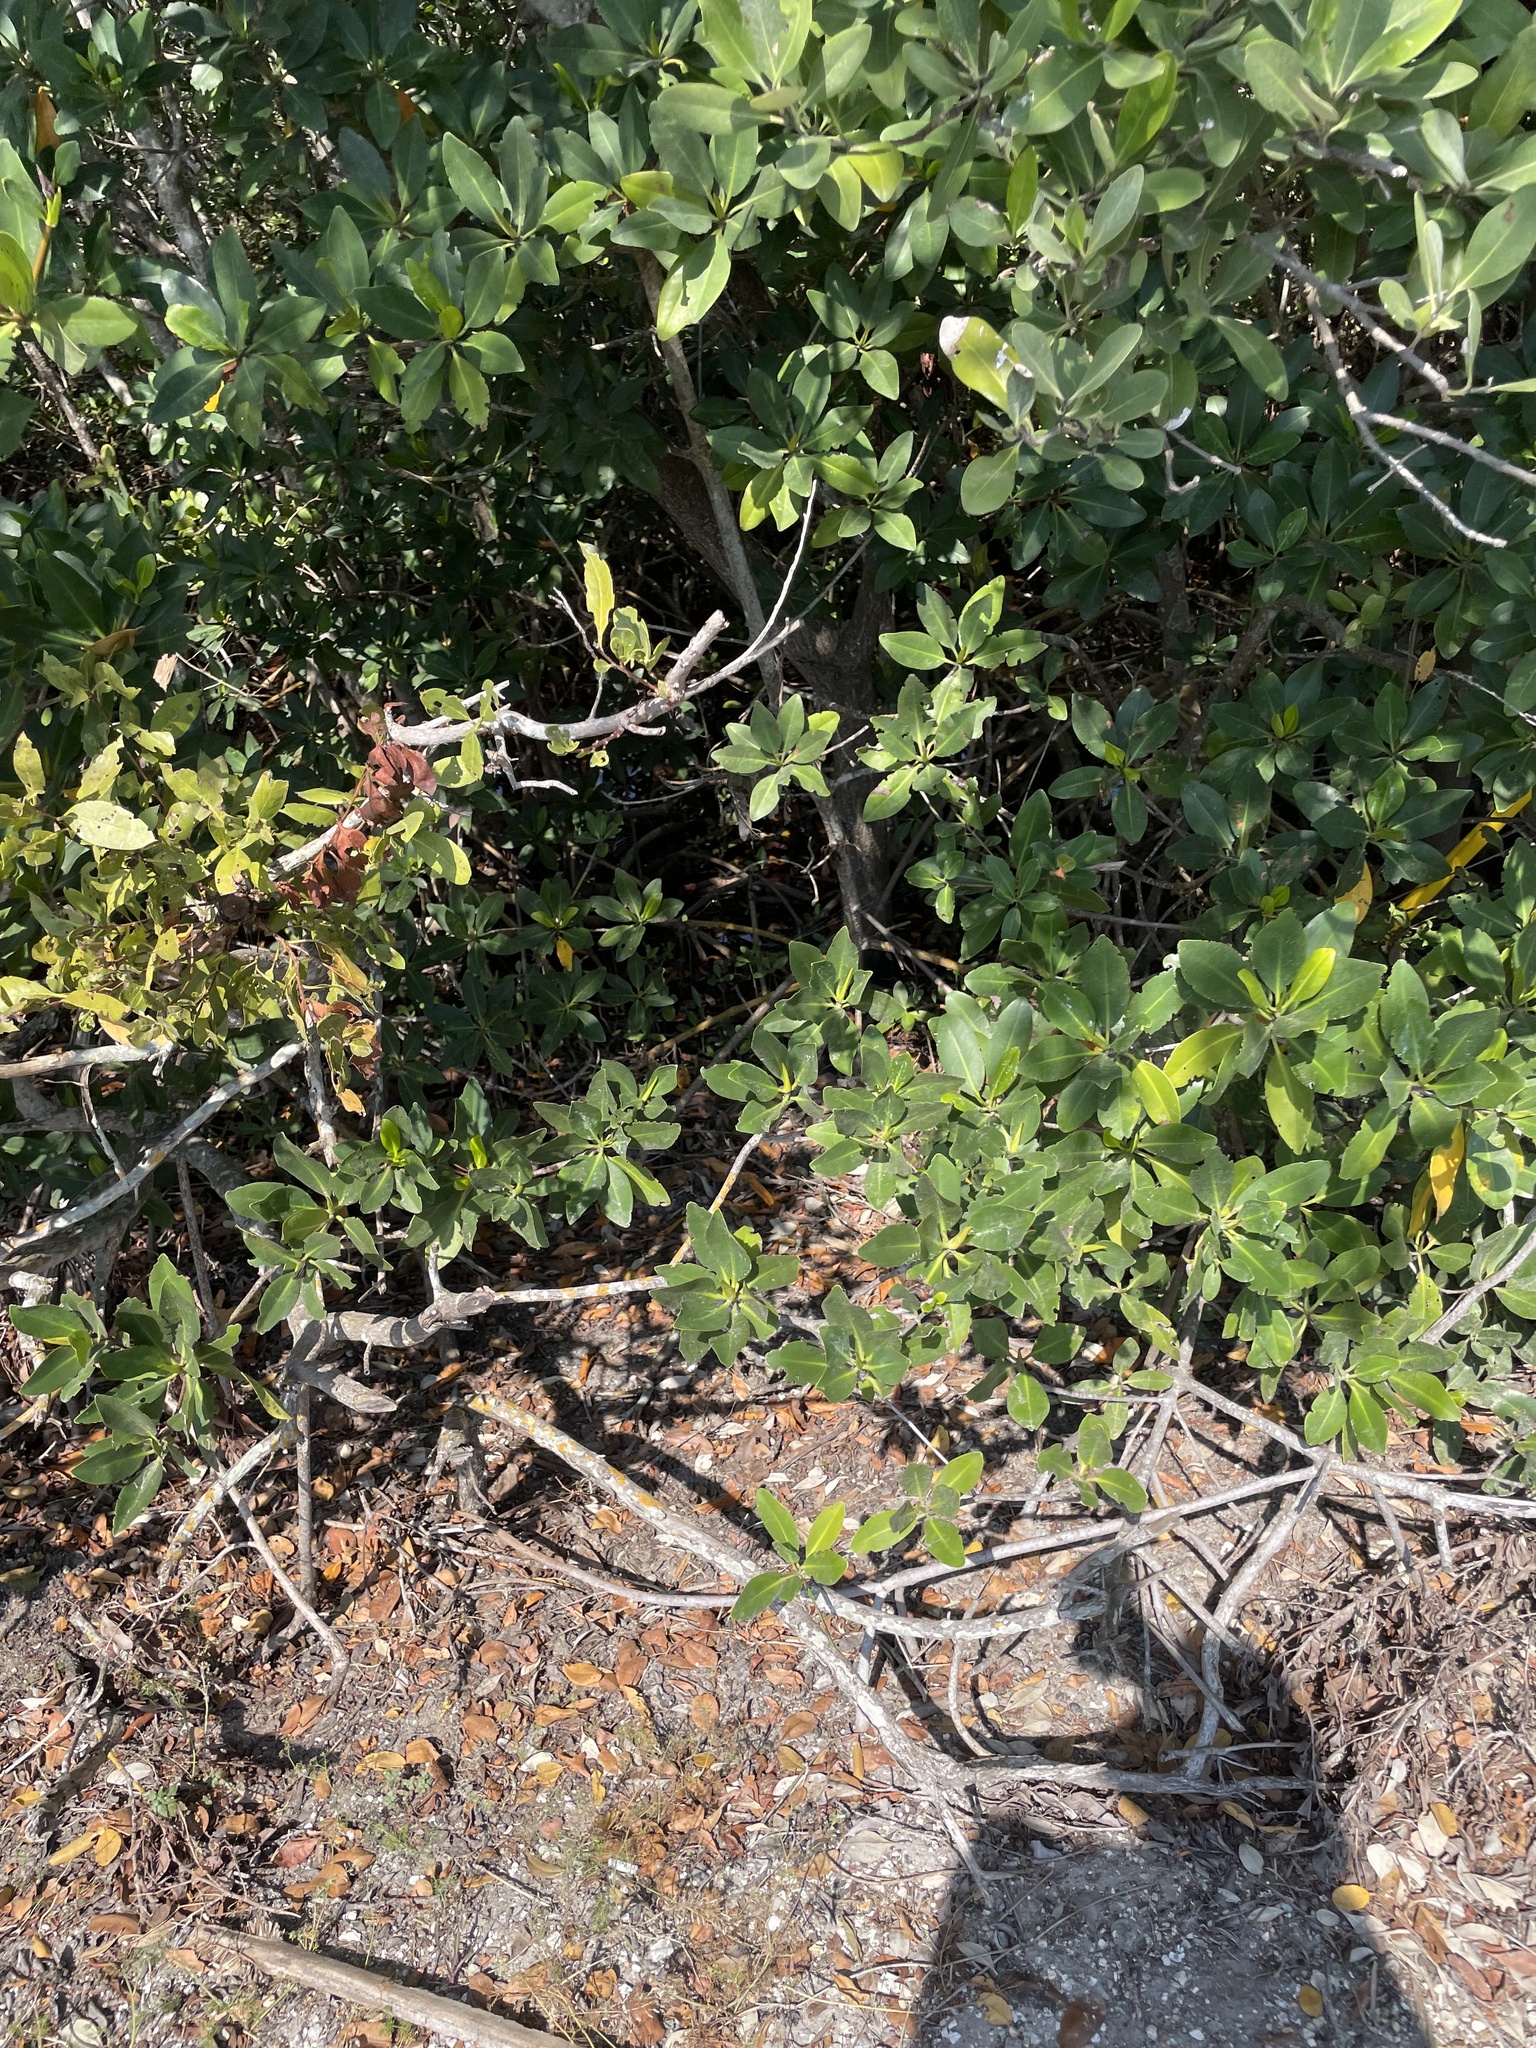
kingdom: Plantae
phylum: Tracheophyta
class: Magnoliopsida
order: Malpighiales
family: Rhizophoraceae
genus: Rhizophora
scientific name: Rhizophora mangle
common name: Red mangrove
